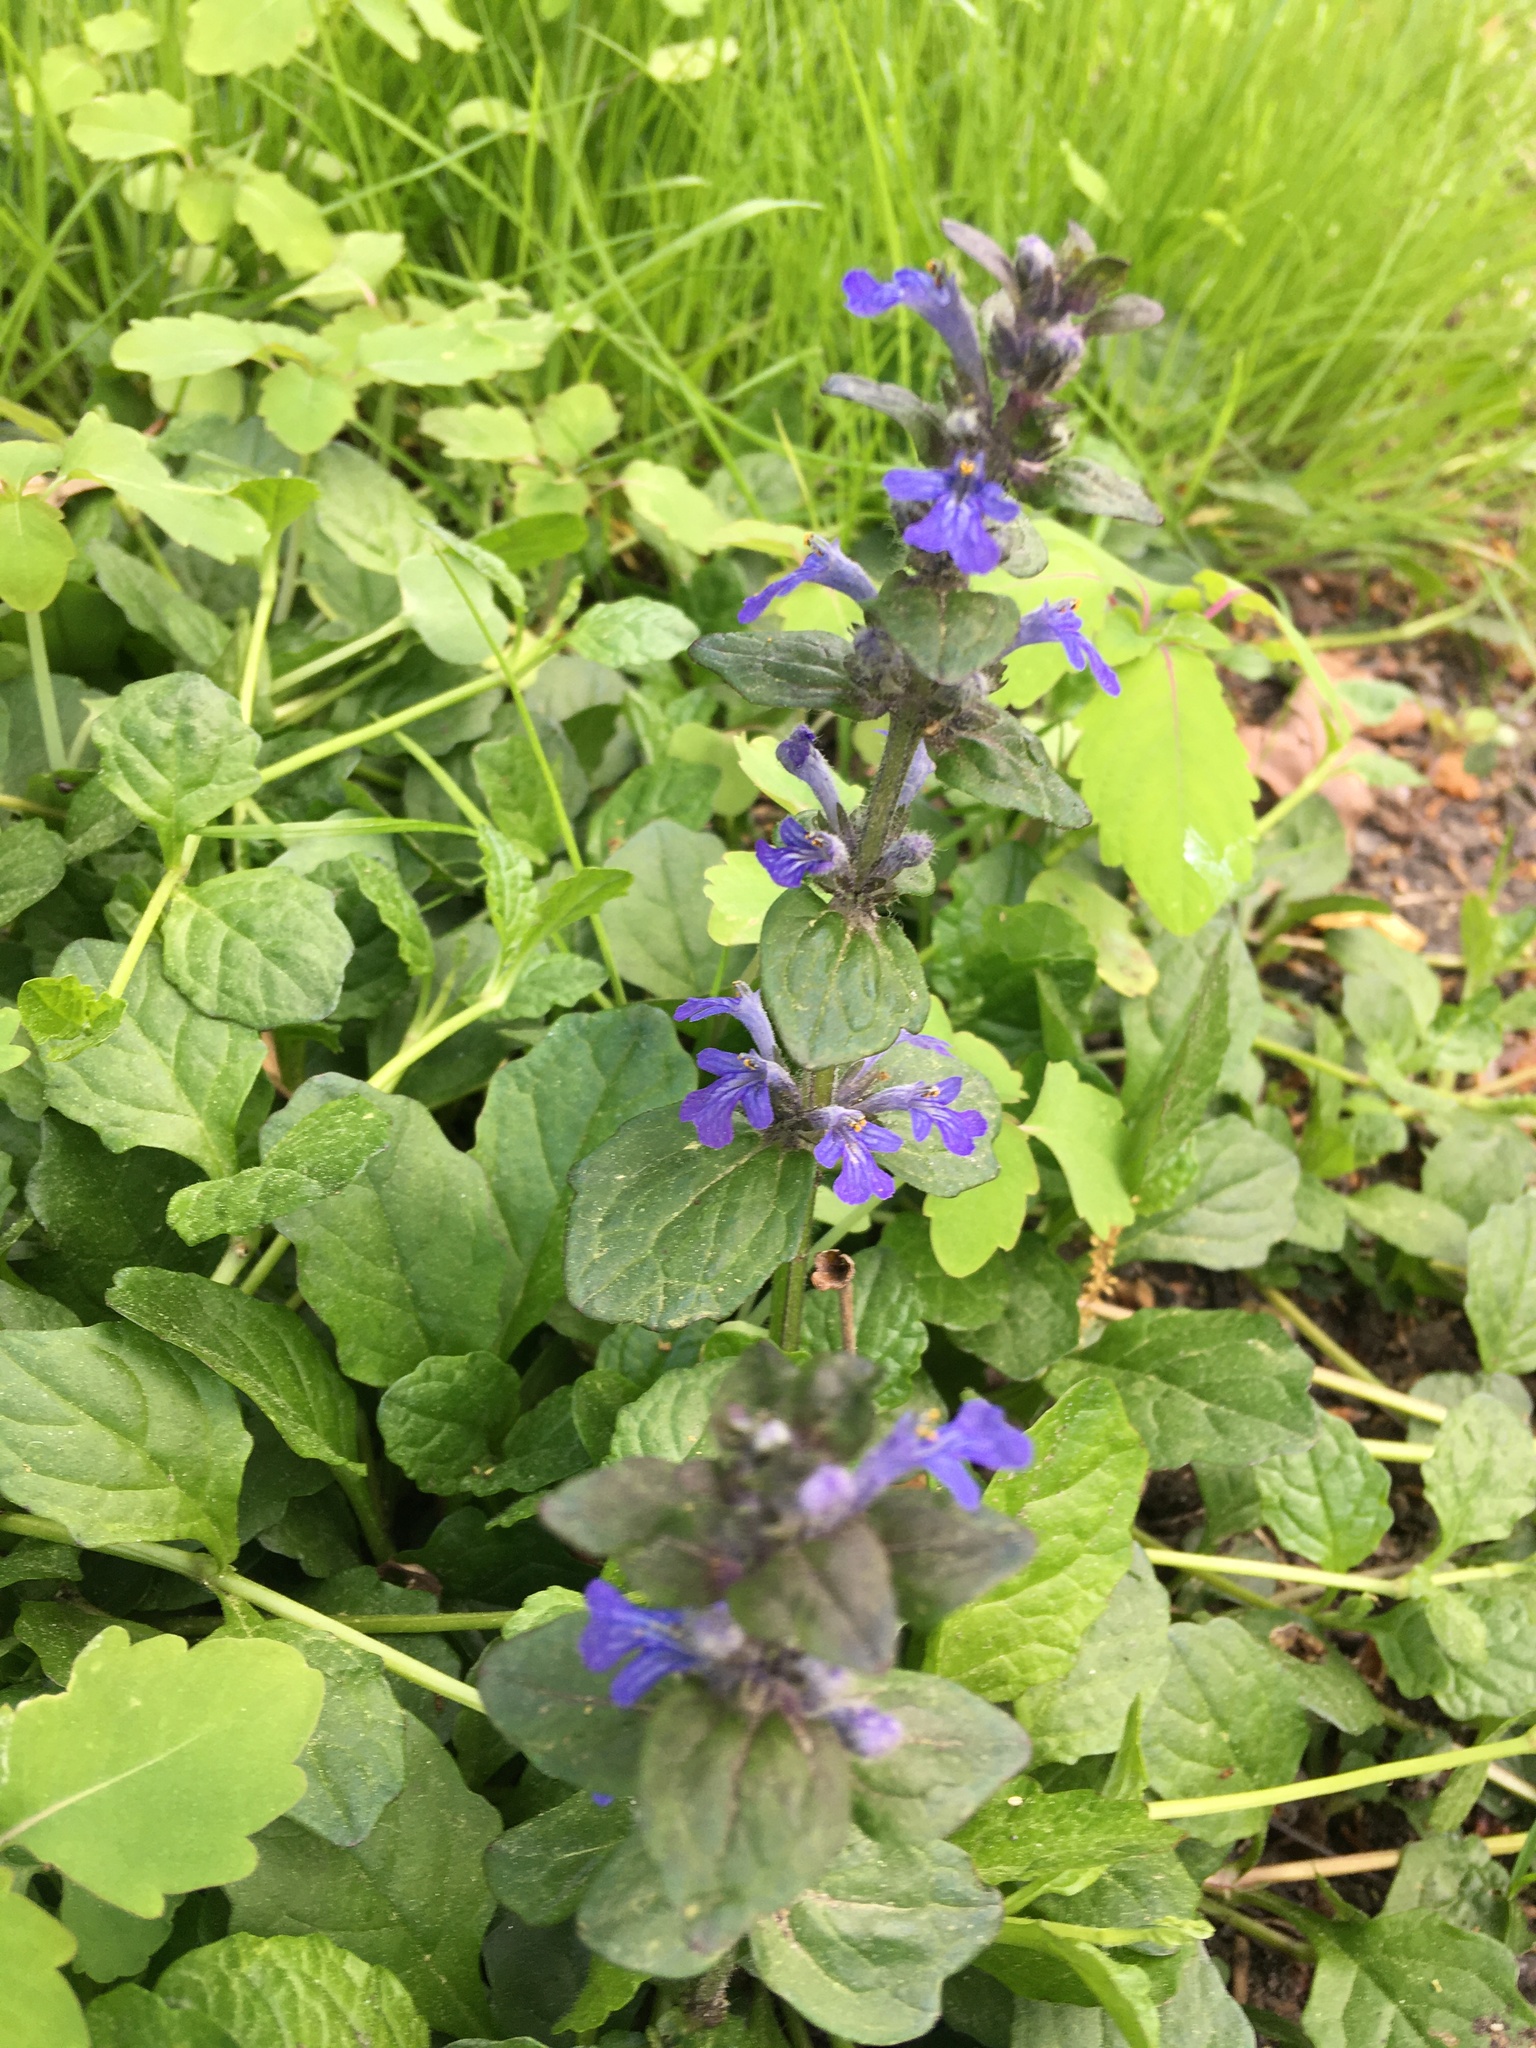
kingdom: Plantae
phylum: Tracheophyta
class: Magnoliopsida
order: Lamiales
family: Lamiaceae
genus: Ajuga
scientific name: Ajuga reptans
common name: Bugle
